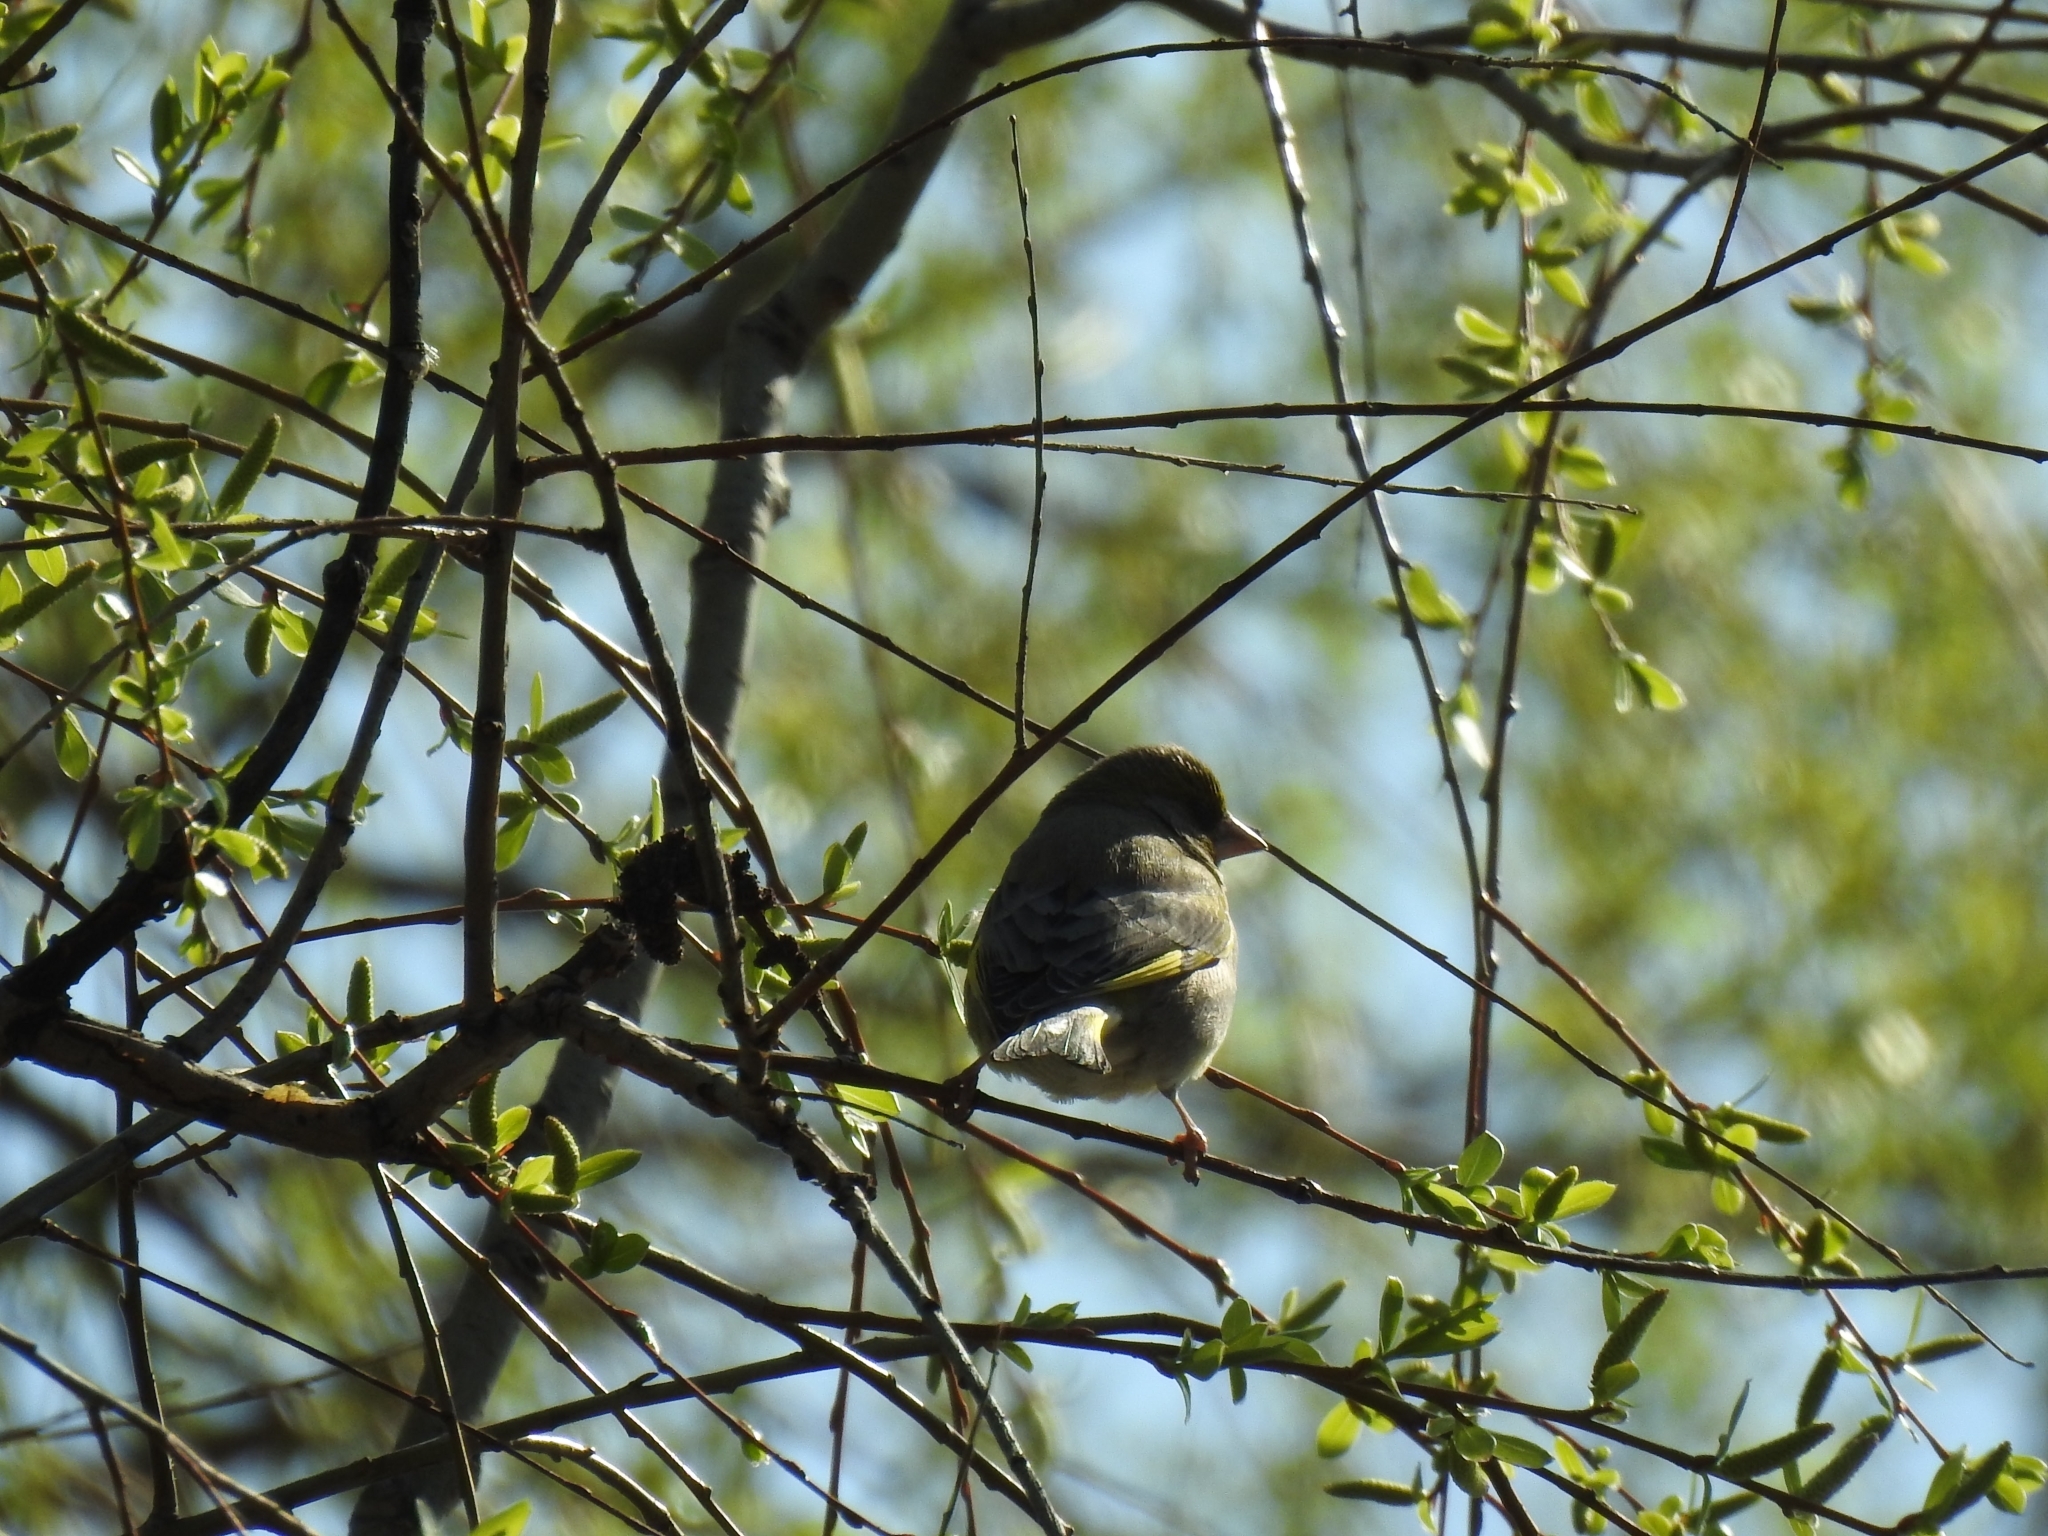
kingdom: Plantae
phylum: Tracheophyta
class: Liliopsida
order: Poales
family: Poaceae
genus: Chloris
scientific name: Chloris chloris
